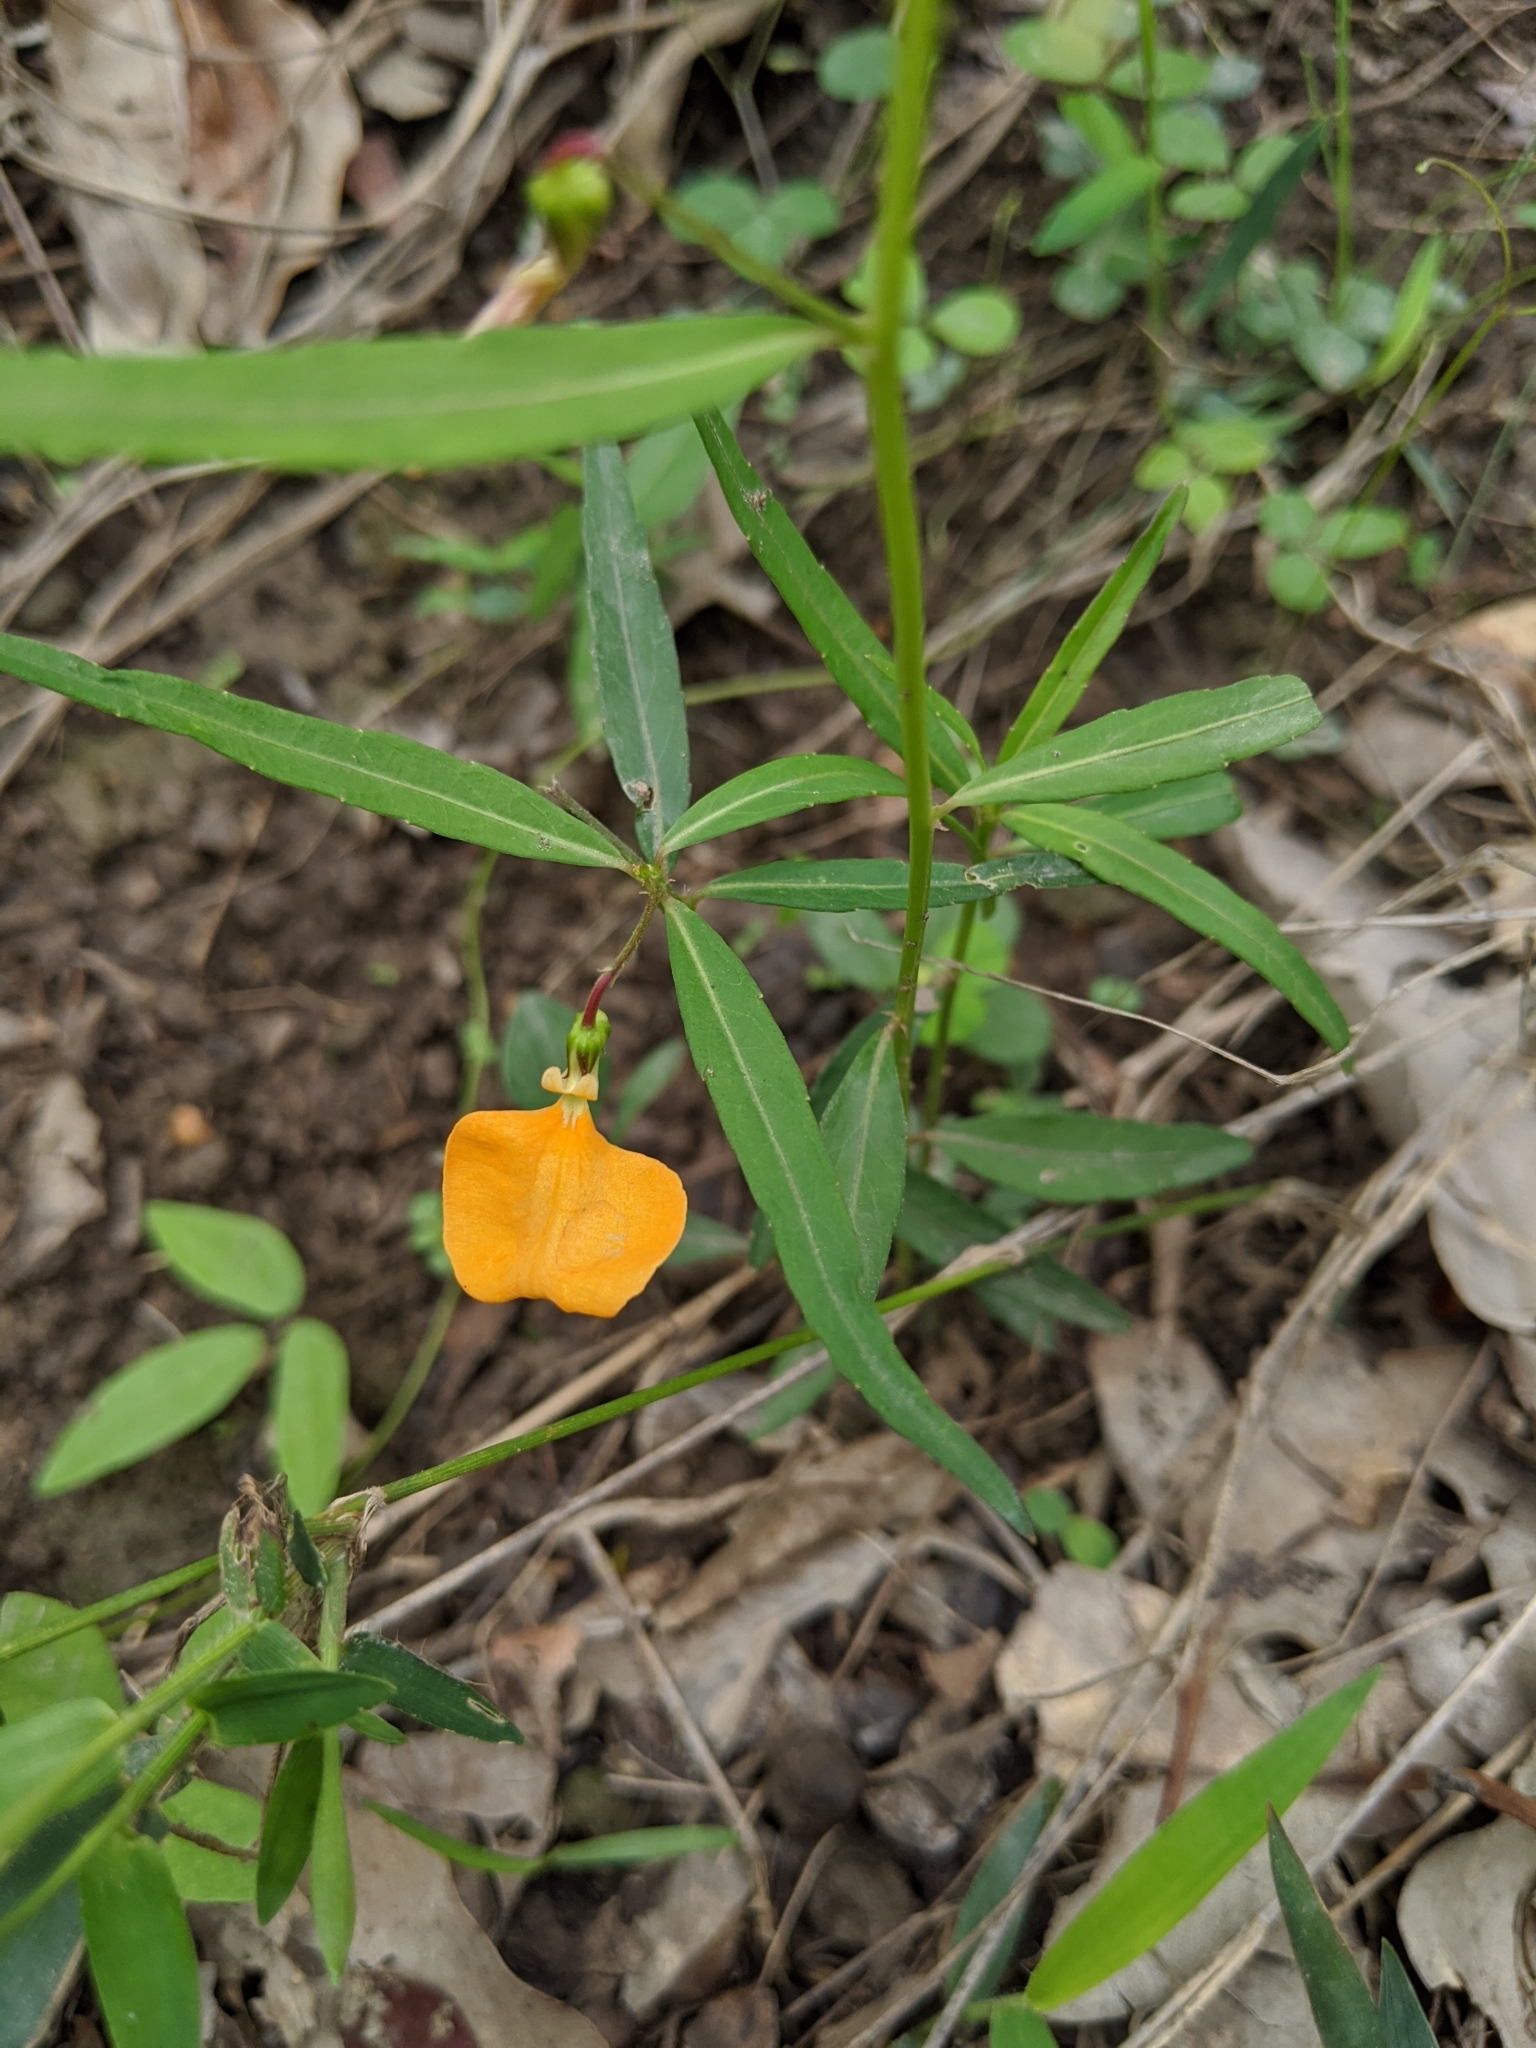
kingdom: Plantae
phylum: Tracheophyta
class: Magnoliopsida
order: Malpighiales
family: Violaceae
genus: Pigea
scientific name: Pigea stellarioides
